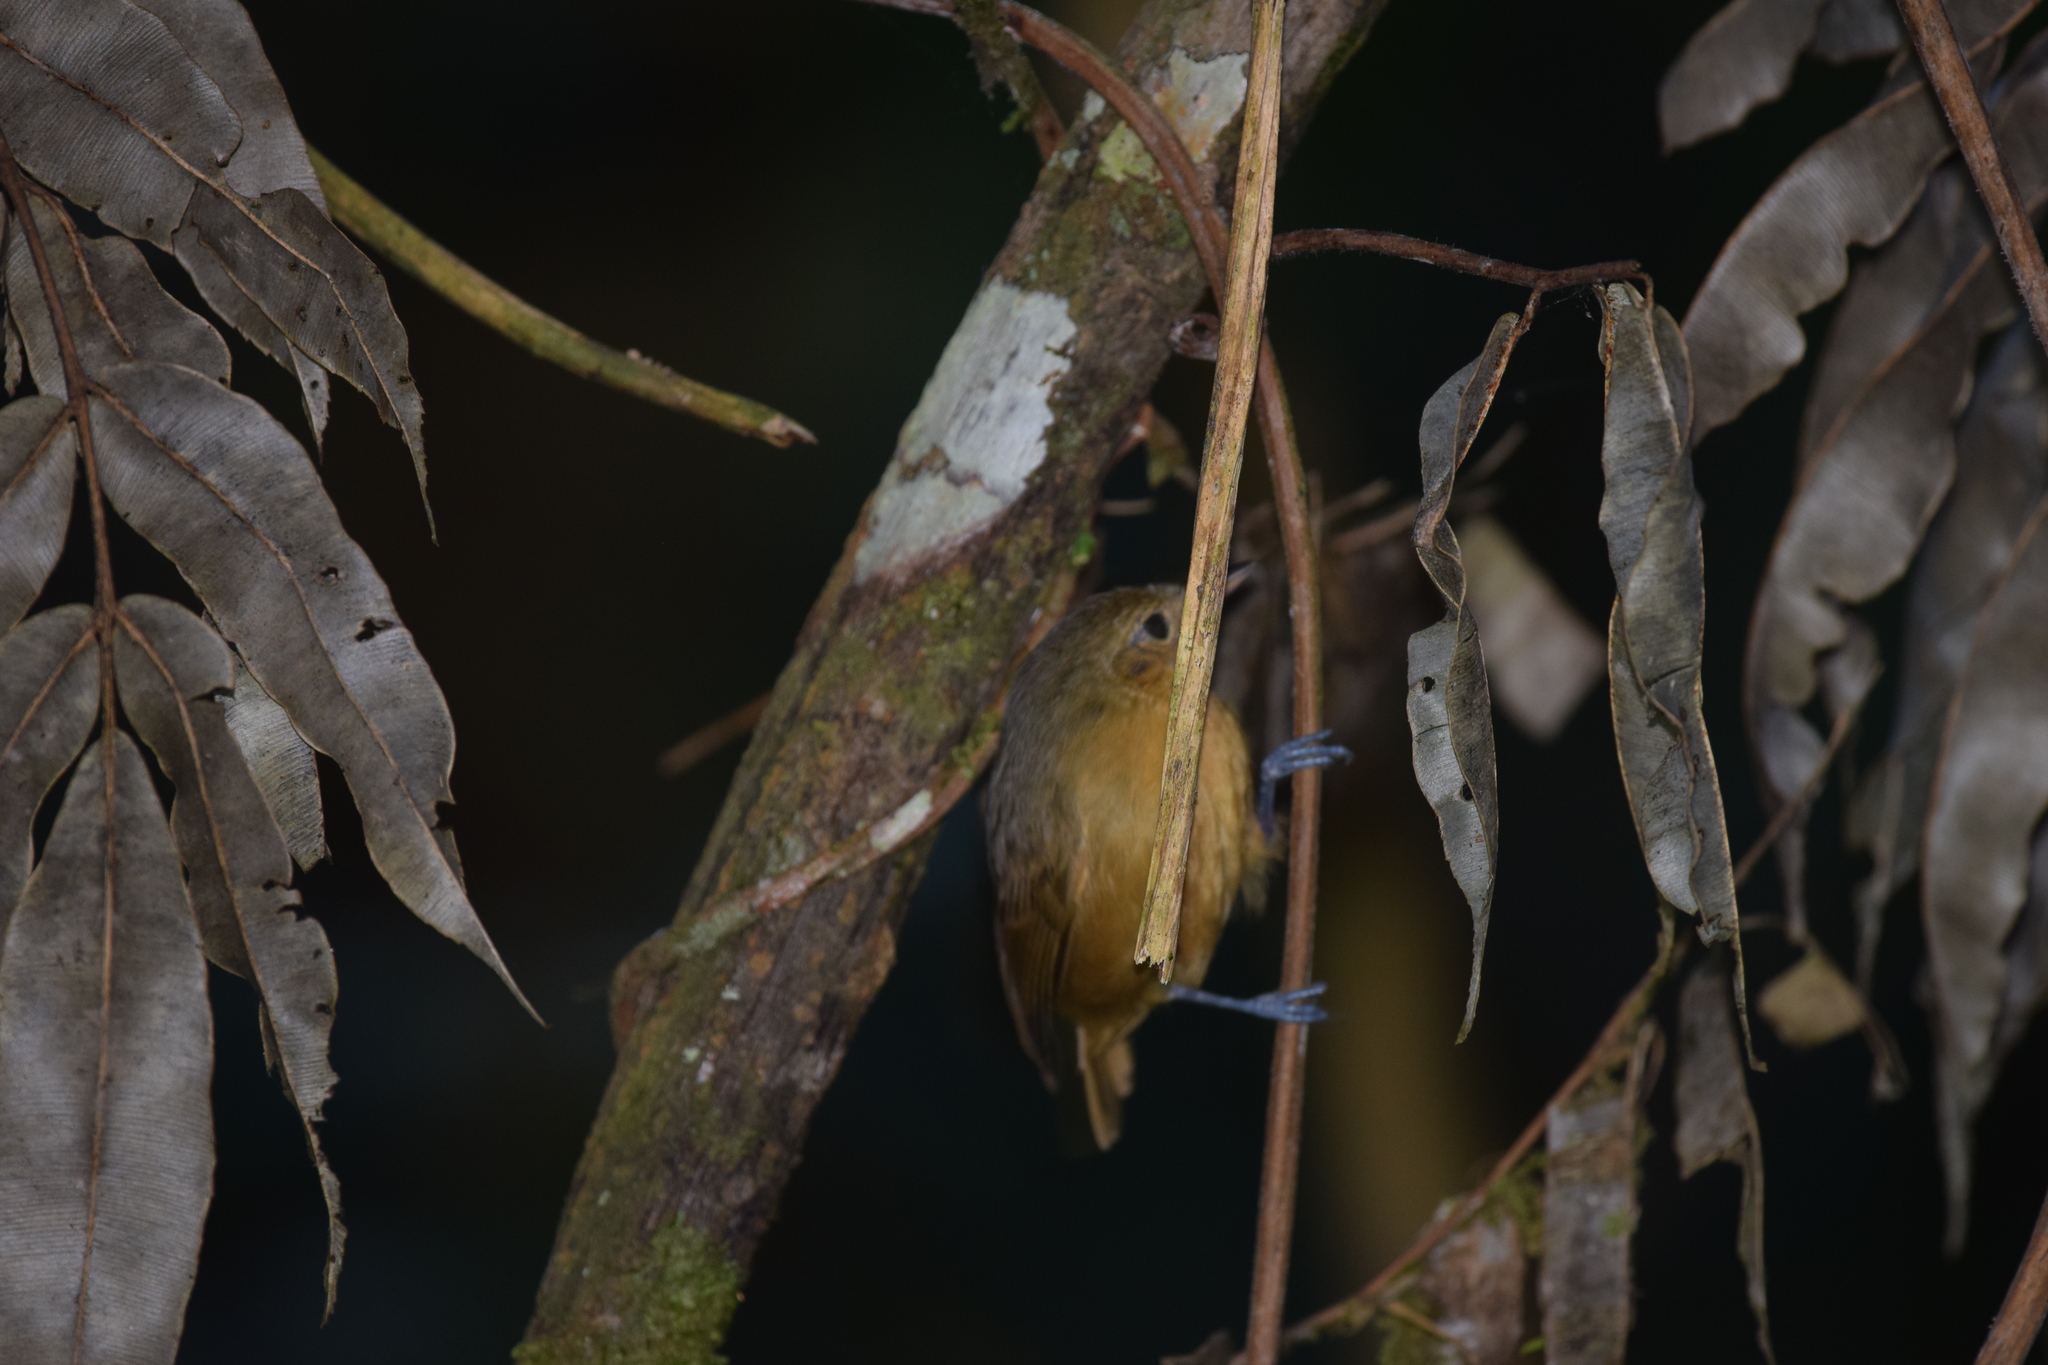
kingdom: Animalia
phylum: Chordata
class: Aves
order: Passeriformes
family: Thamnophilidae
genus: Myrmotherula
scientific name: Myrmotherula schisticolor
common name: Slaty antwren
